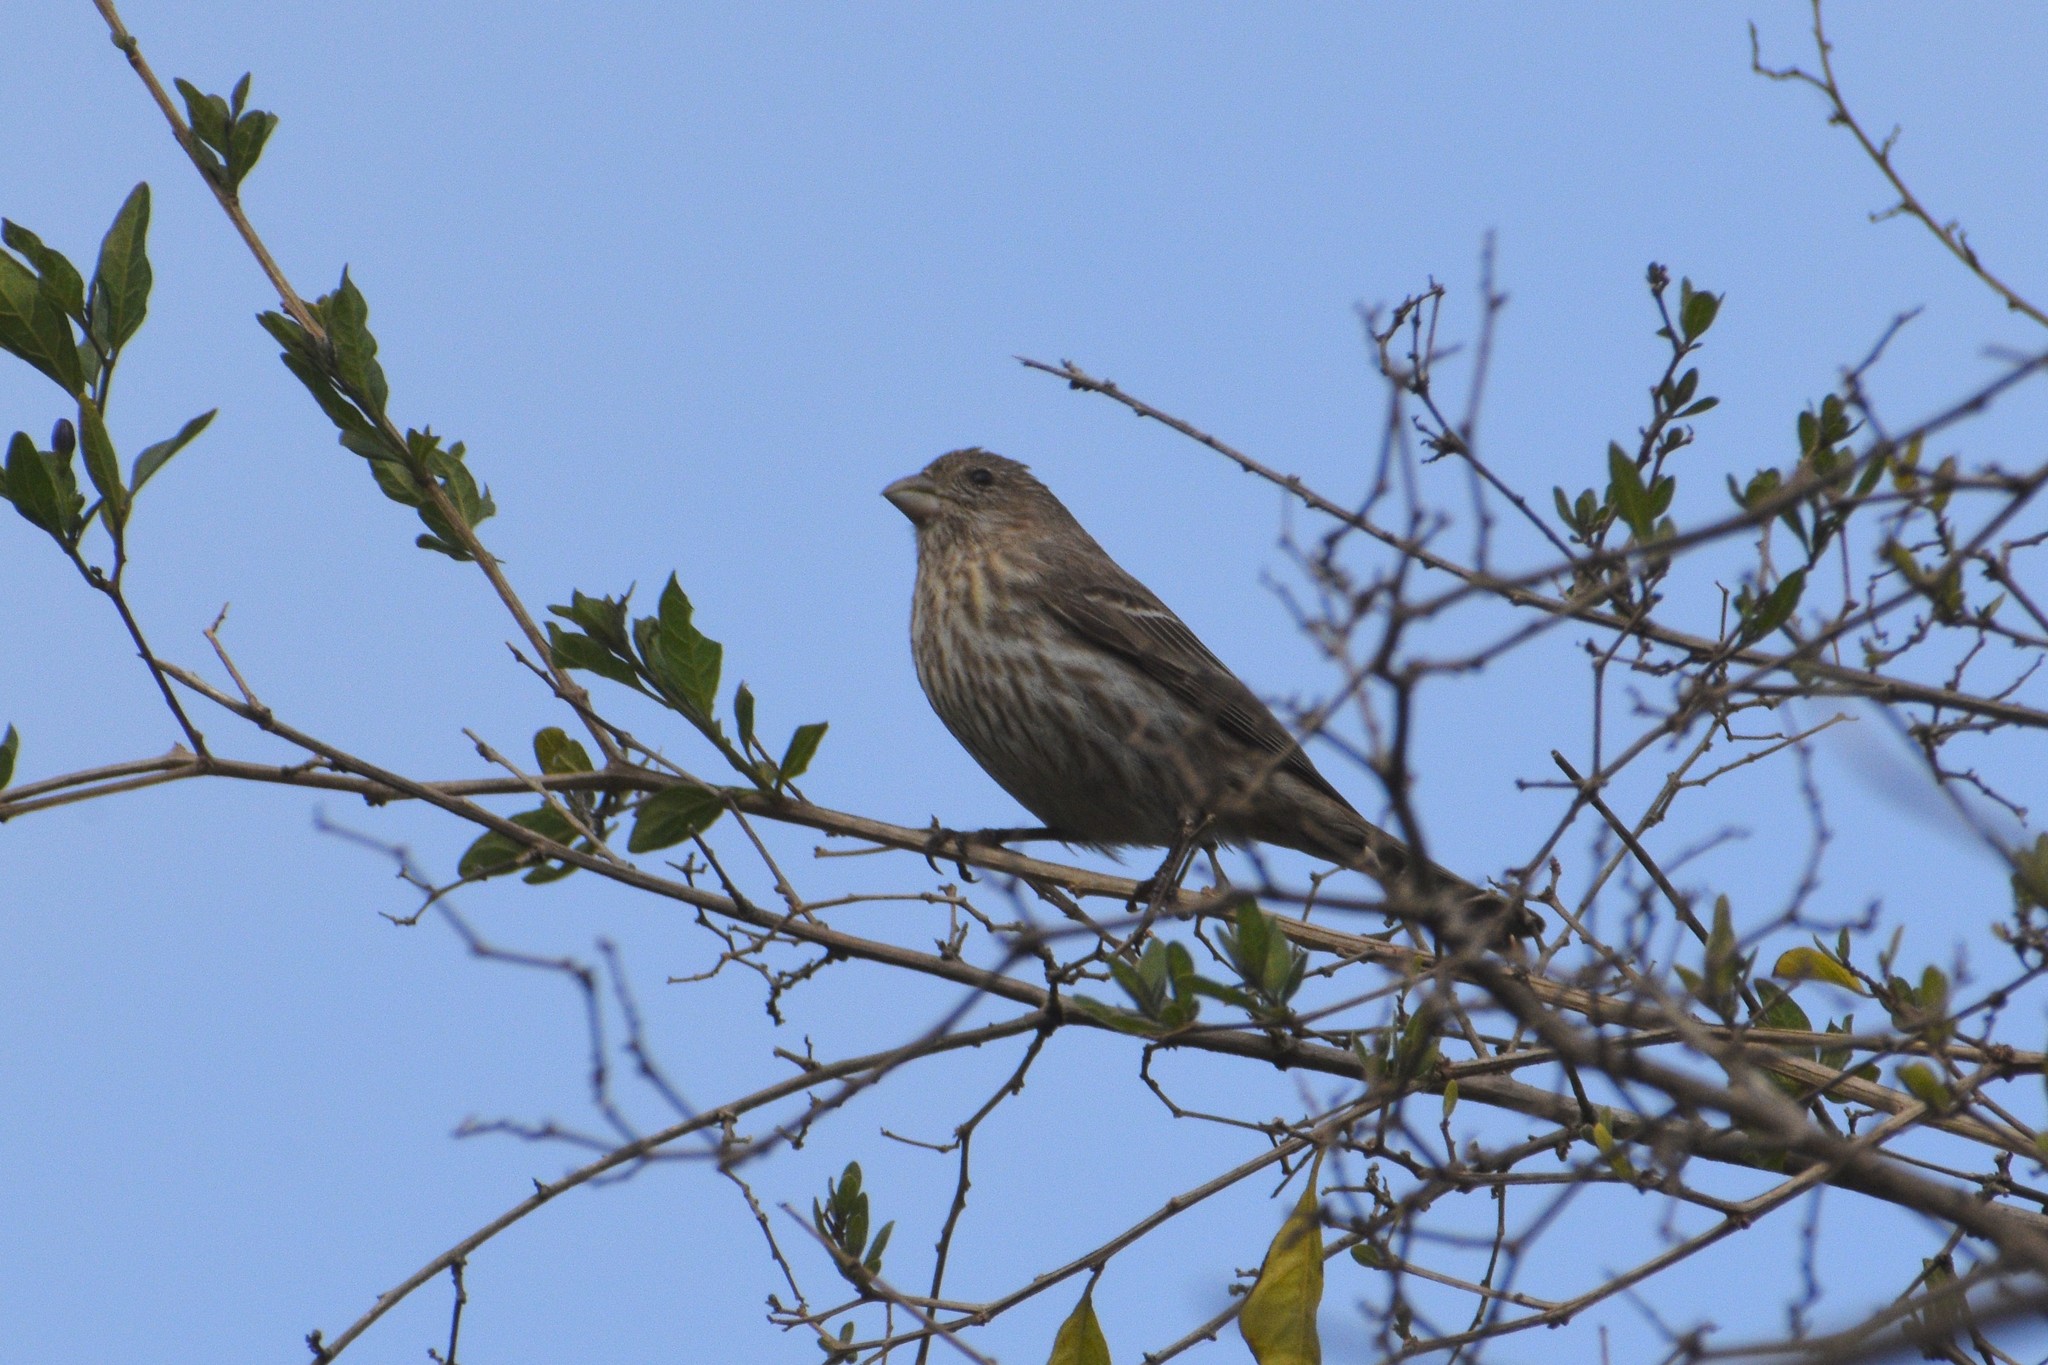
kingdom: Animalia
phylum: Chordata
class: Aves
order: Passeriformes
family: Fringillidae
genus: Haemorhous
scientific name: Haemorhous mexicanus
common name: House finch
